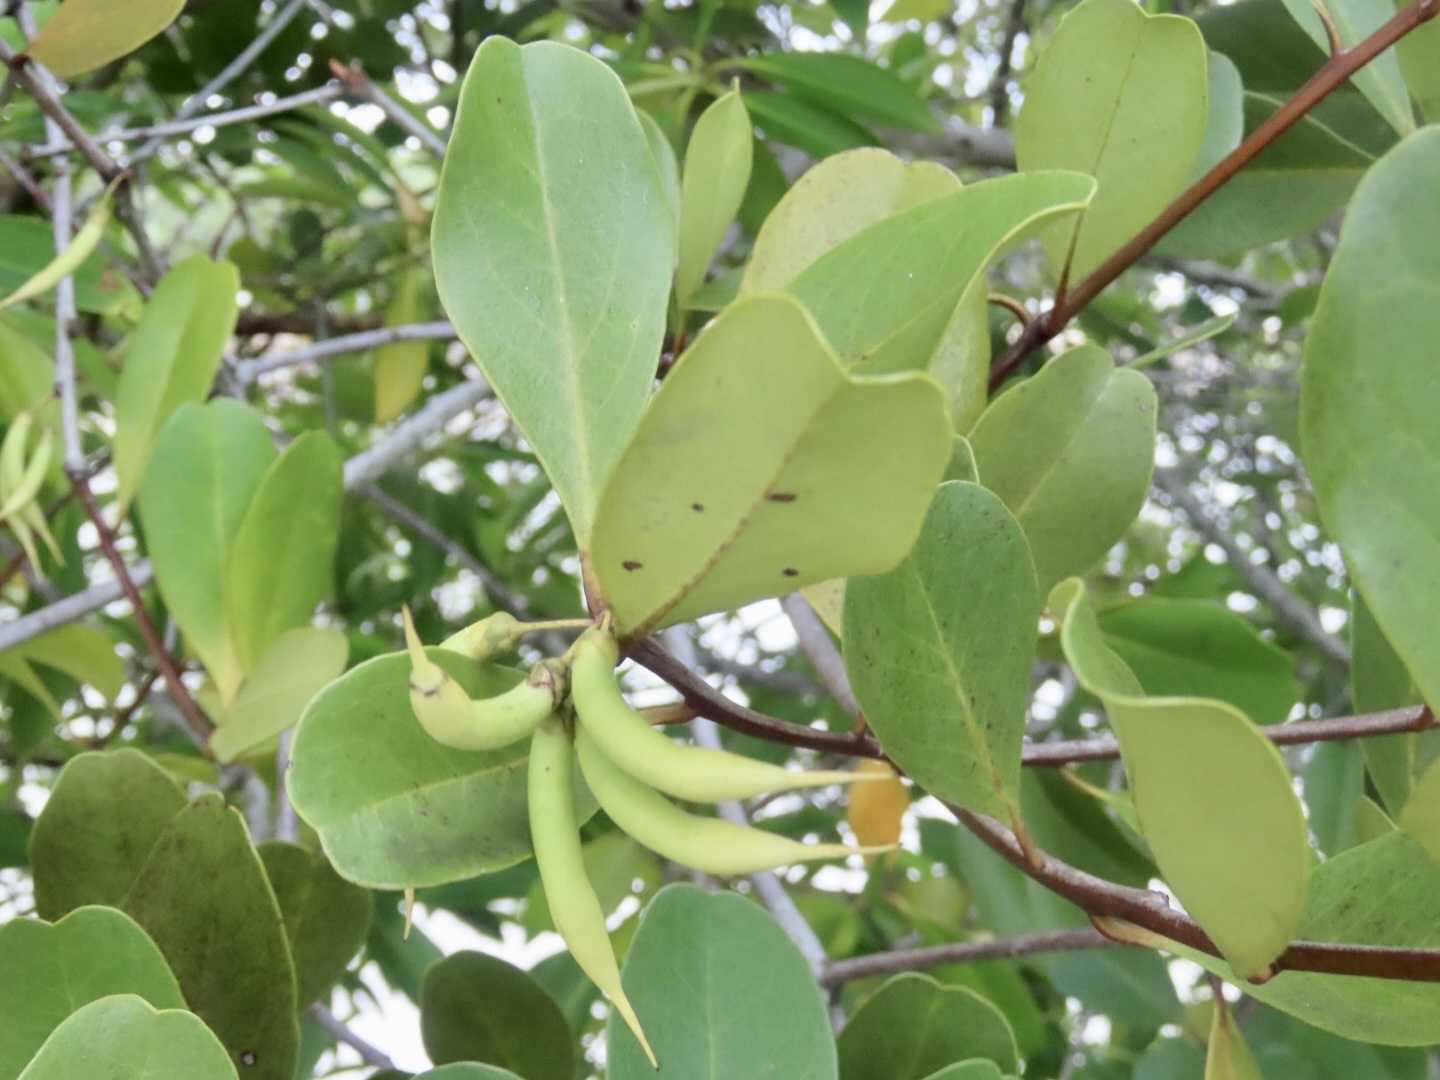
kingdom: Plantae
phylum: Tracheophyta
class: Magnoliopsida
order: Ericales
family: Primulaceae
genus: Aegiceras
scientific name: Aegiceras corniculatum
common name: River mangrove
